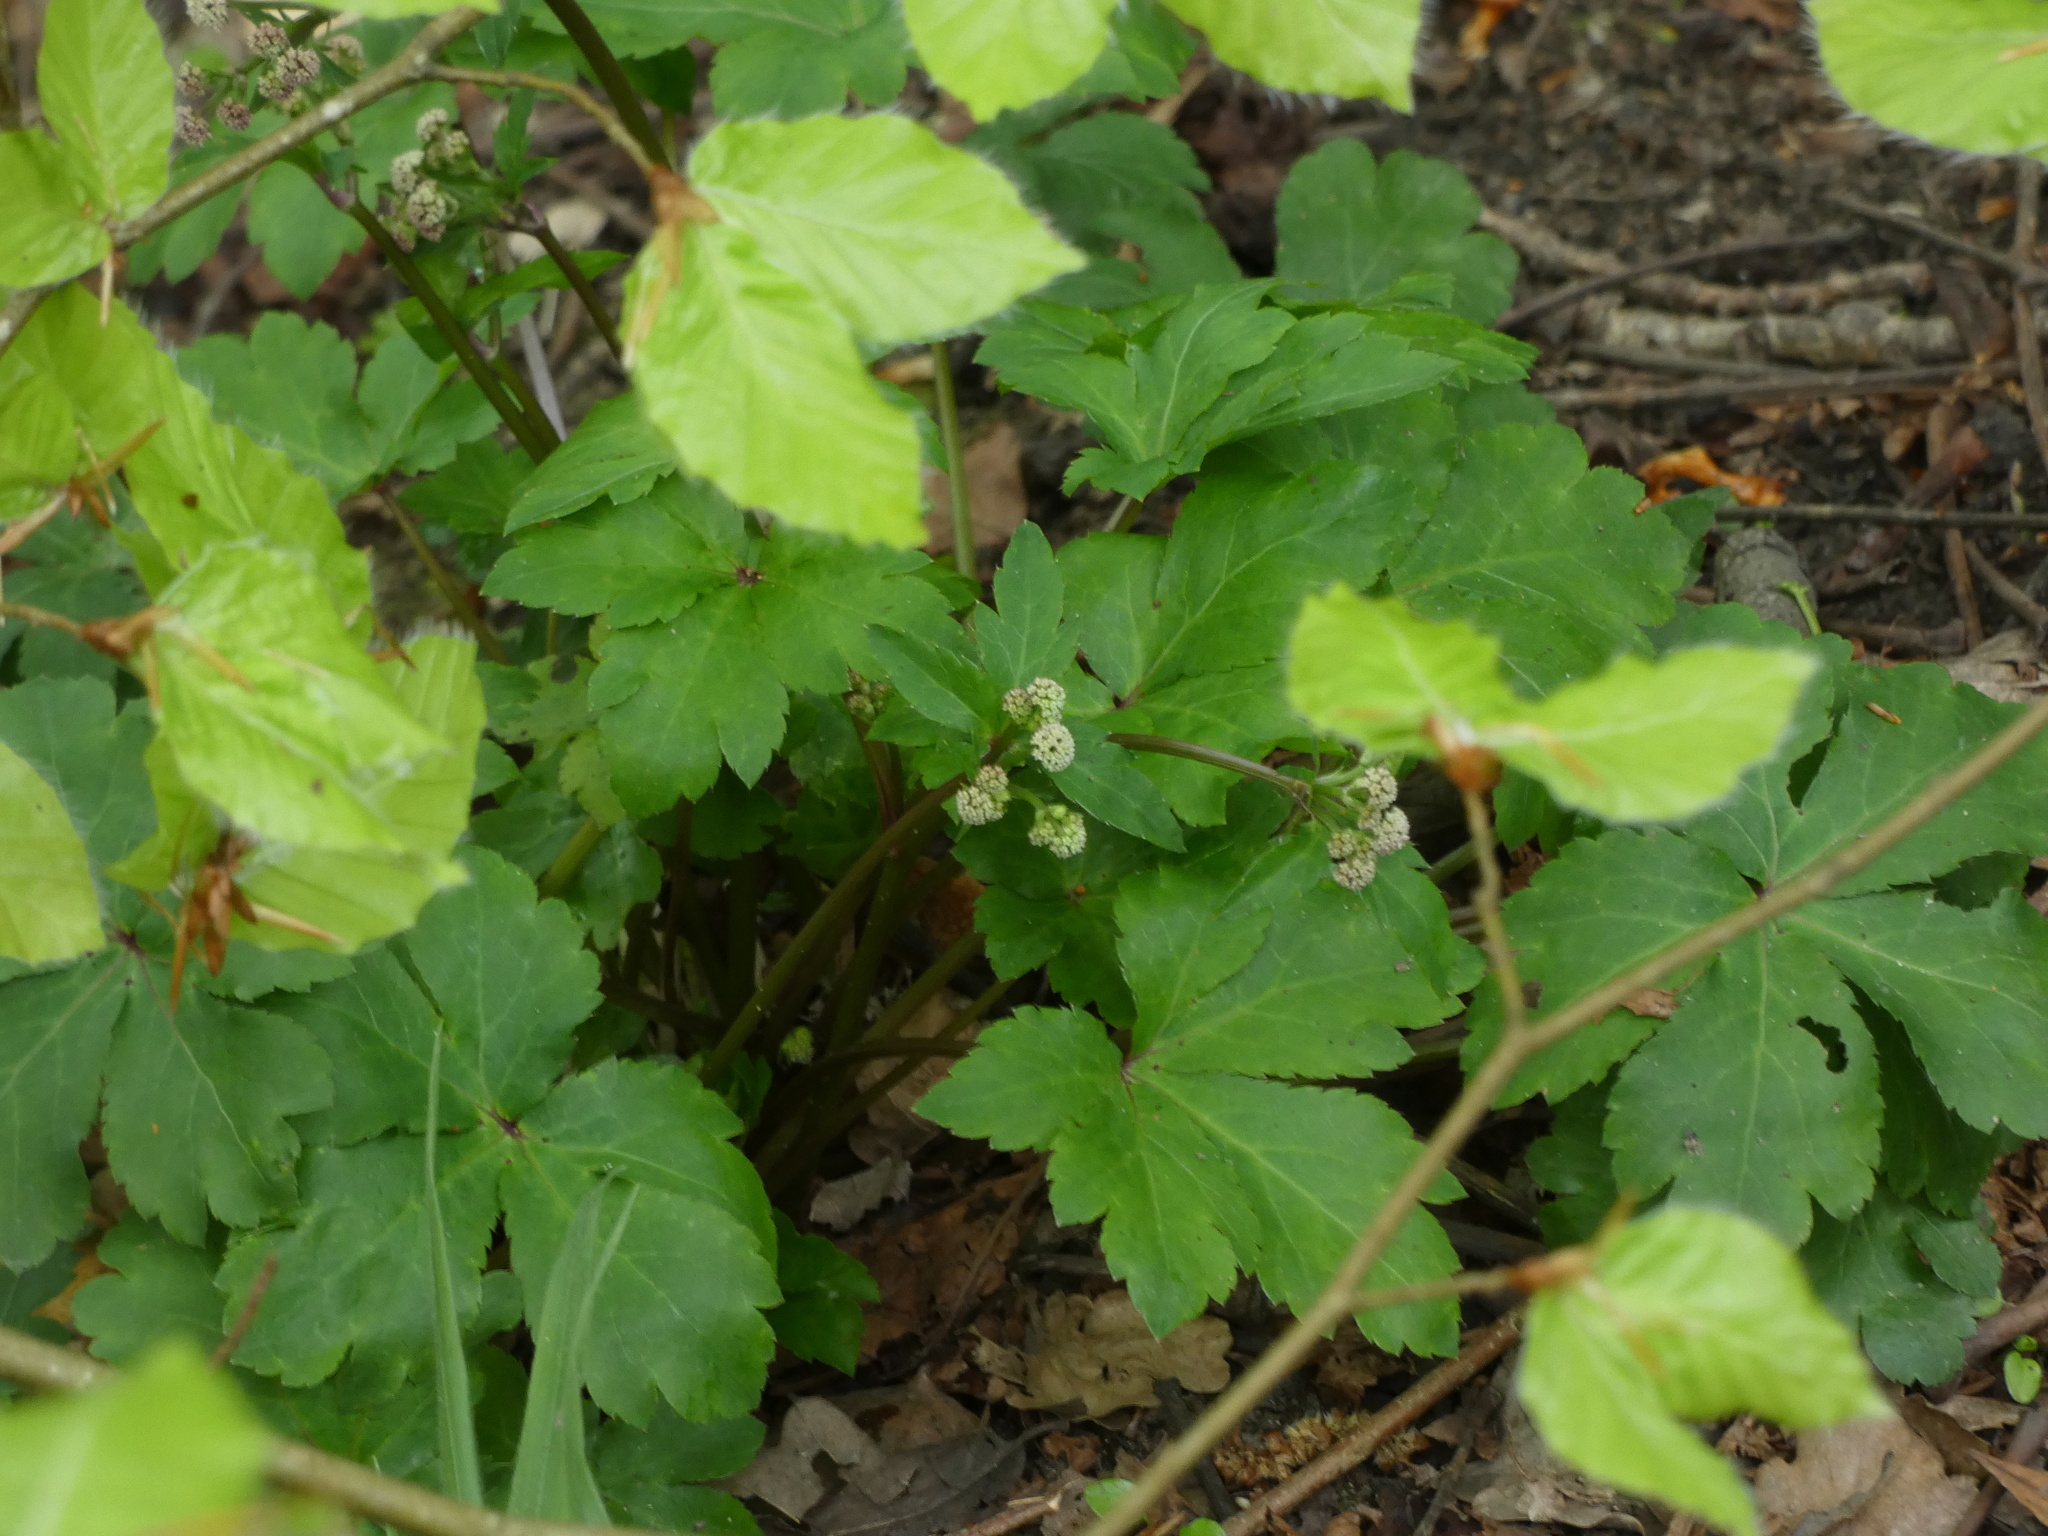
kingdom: Plantae
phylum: Tracheophyta
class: Magnoliopsida
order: Apiales
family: Apiaceae
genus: Sanicula
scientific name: Sanicula europaea
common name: Sanicle
